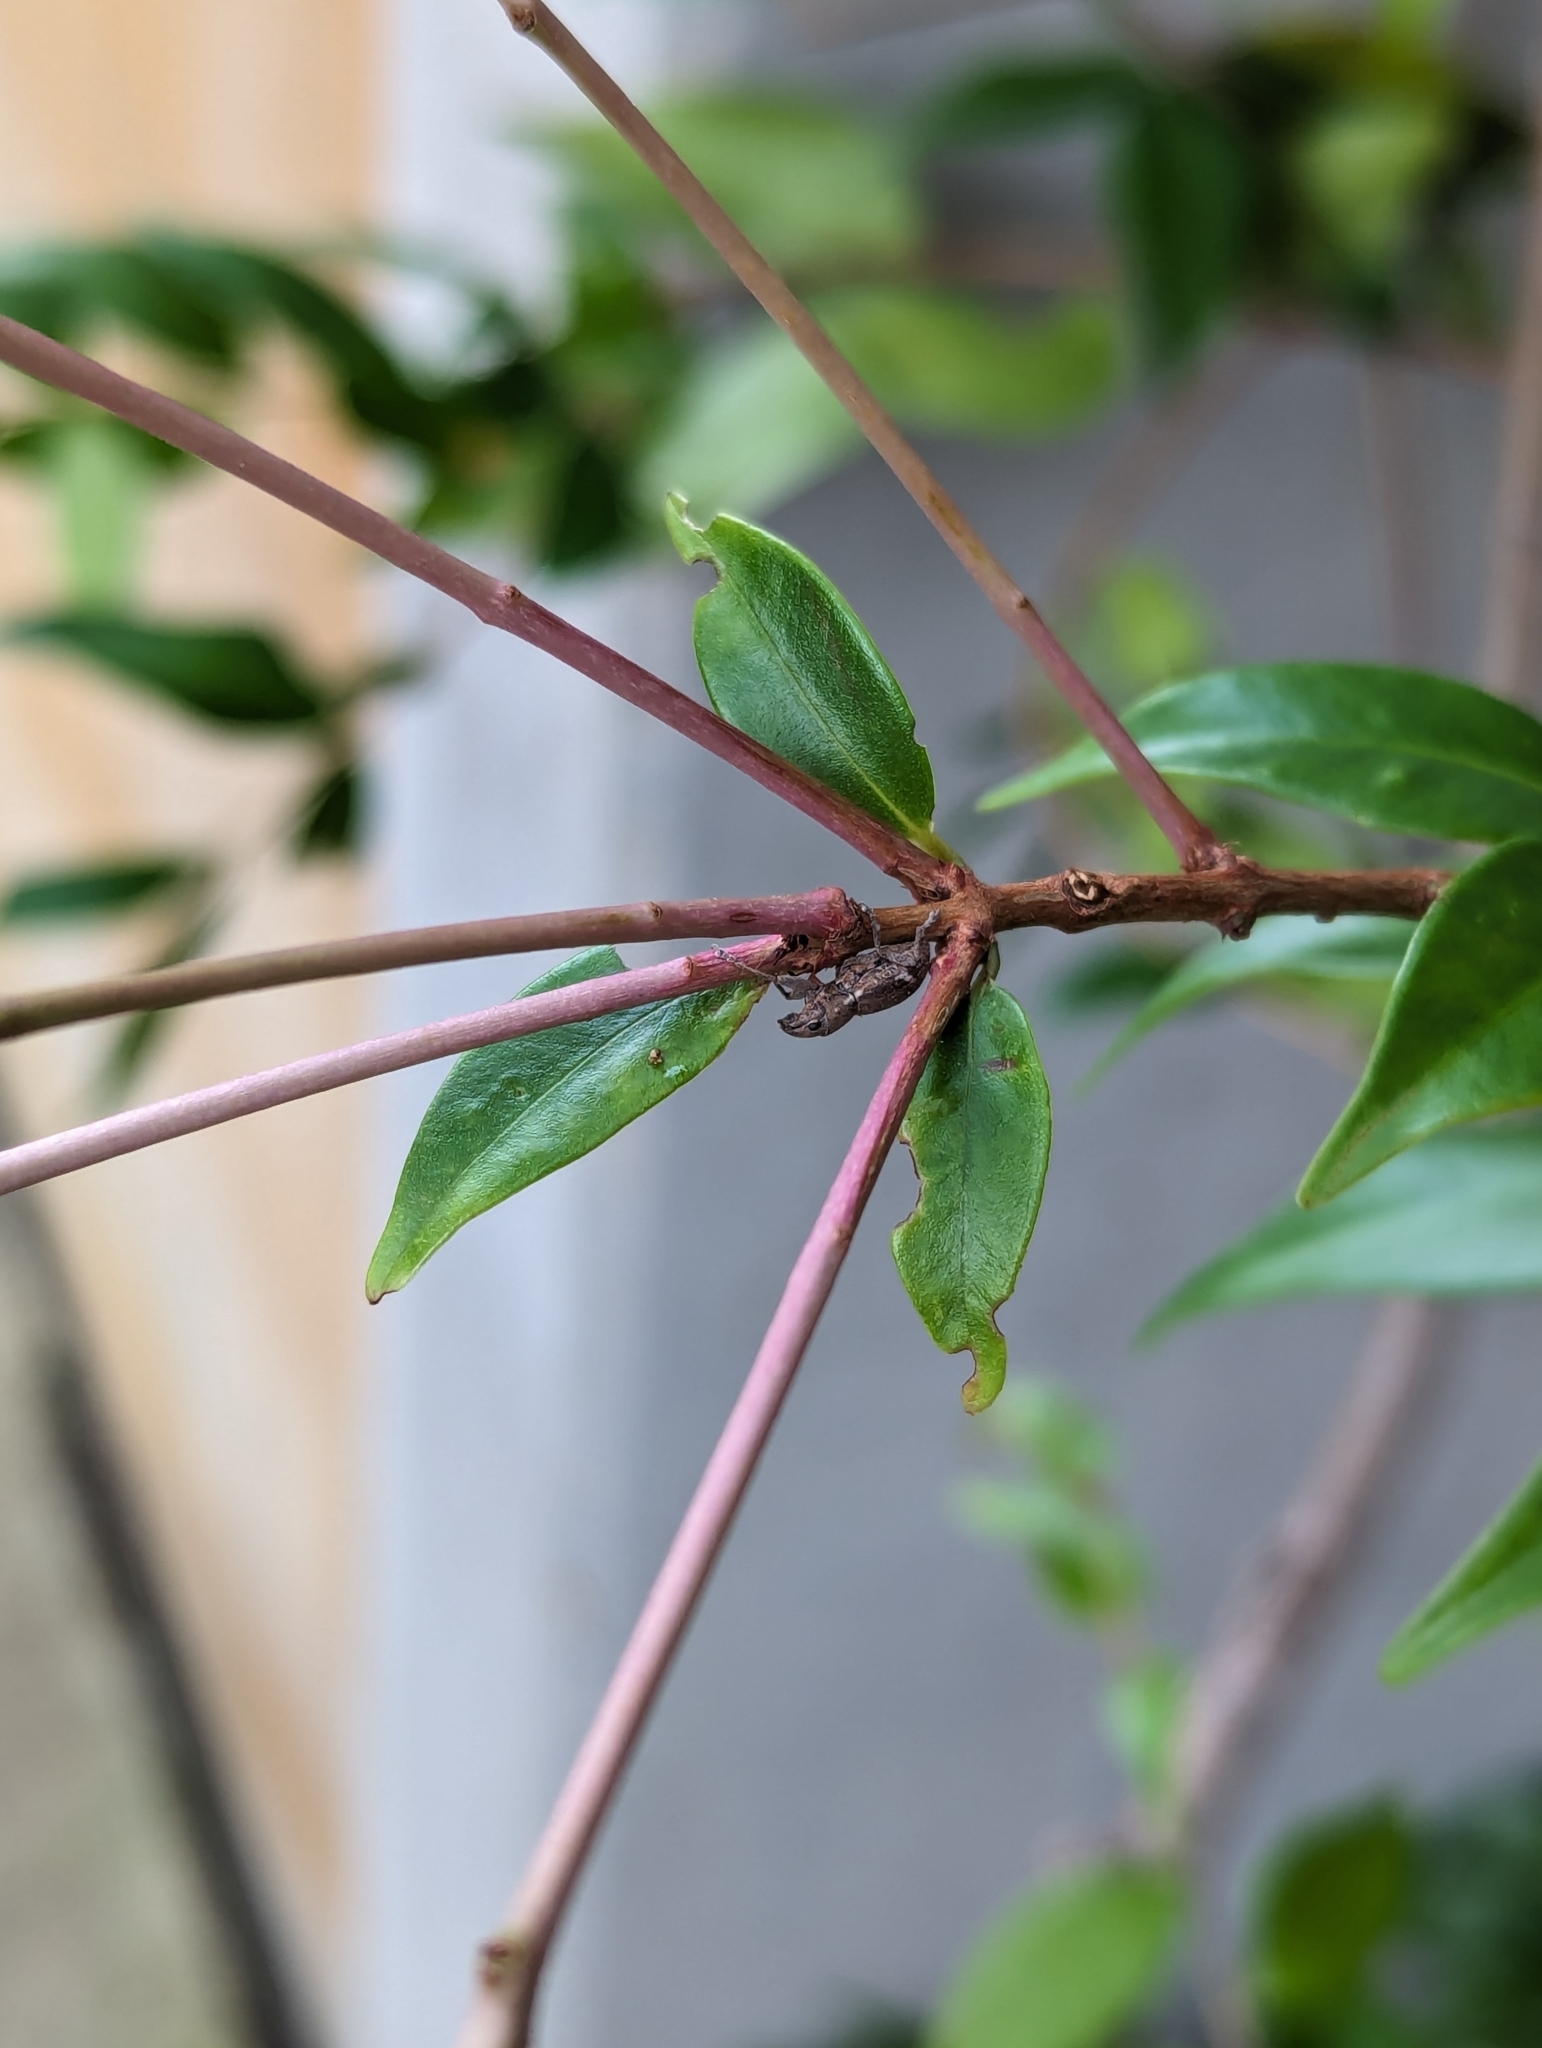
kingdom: Animalia
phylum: Arthropoda
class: Insecta
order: Coleoptera
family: Curculionidae
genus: Naupactus
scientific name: Naupactus cervinus
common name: Fuller rose beetle
